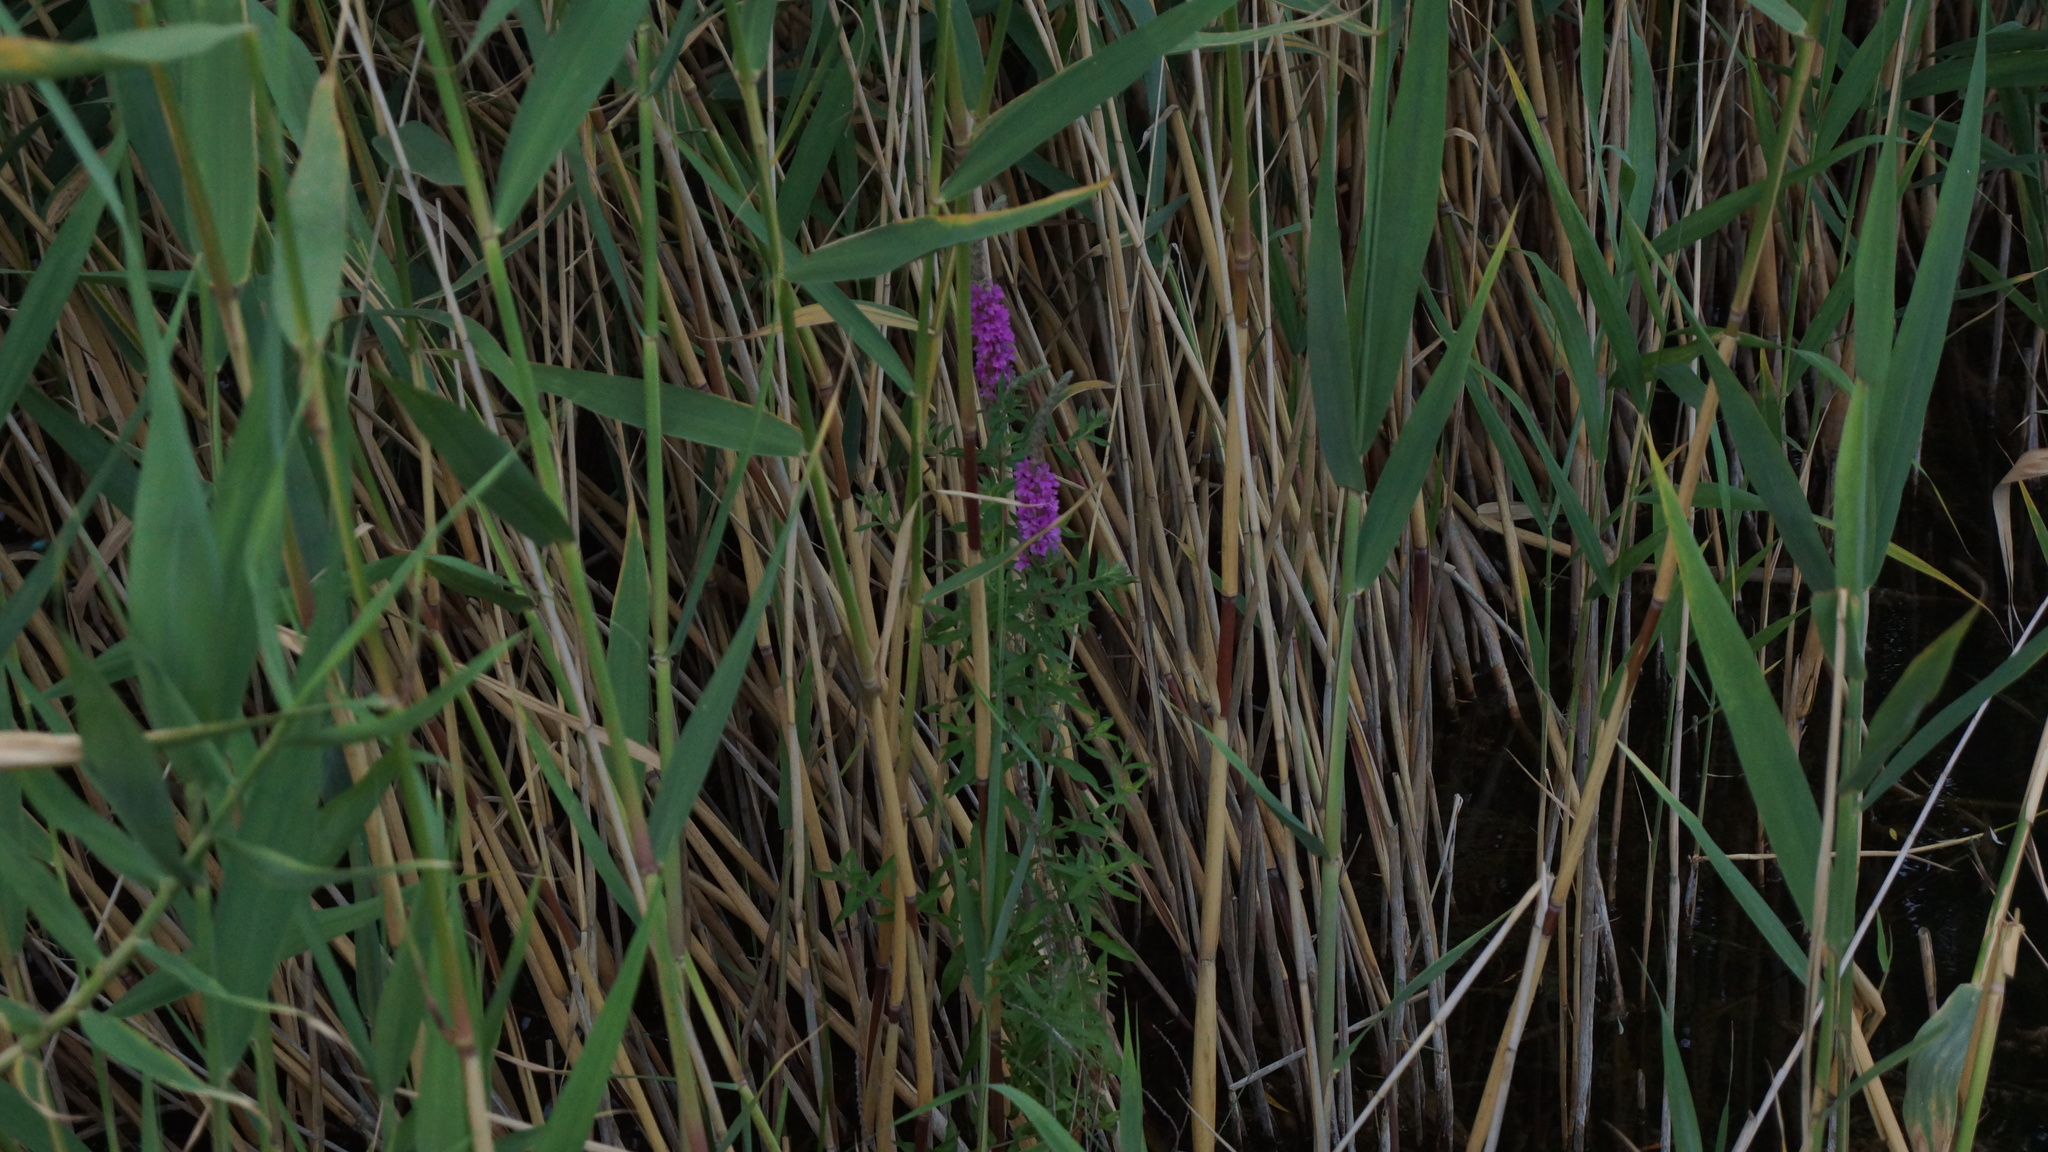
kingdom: Plantae
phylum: Tracheophyta
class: Magnoliopsida
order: Myrtales
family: Lythraceae
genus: Lythrum
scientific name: Lythrum salicaria
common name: Purple loosestrife
